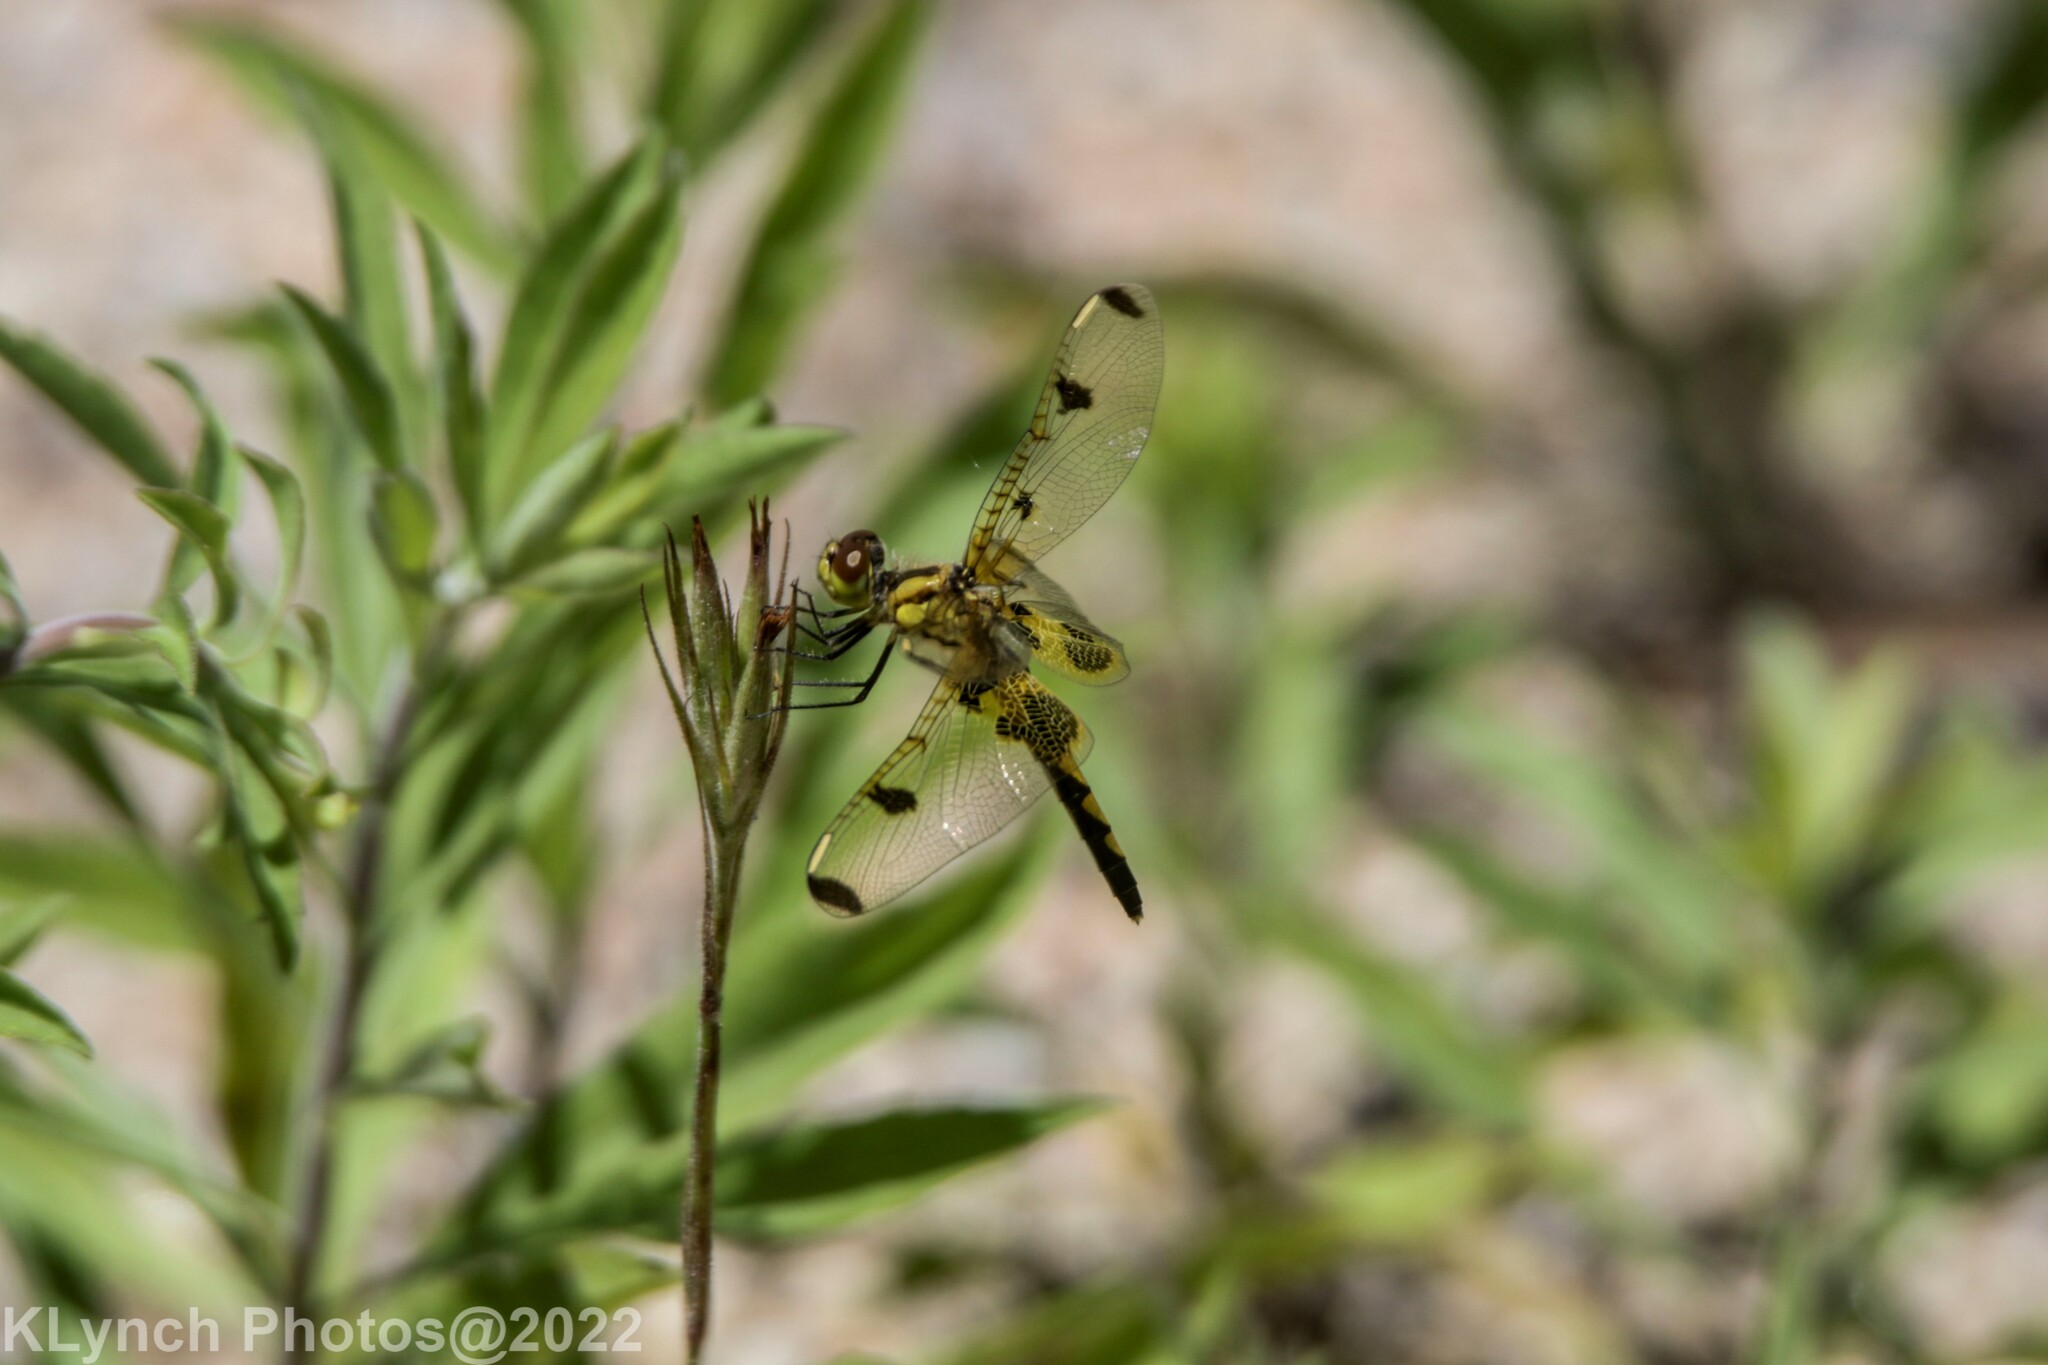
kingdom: Animalia
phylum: Arthropoda
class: Insecta
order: Odonata
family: Libellulidae
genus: Celithemis
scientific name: Celithemis elisa
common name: Calico pennant
